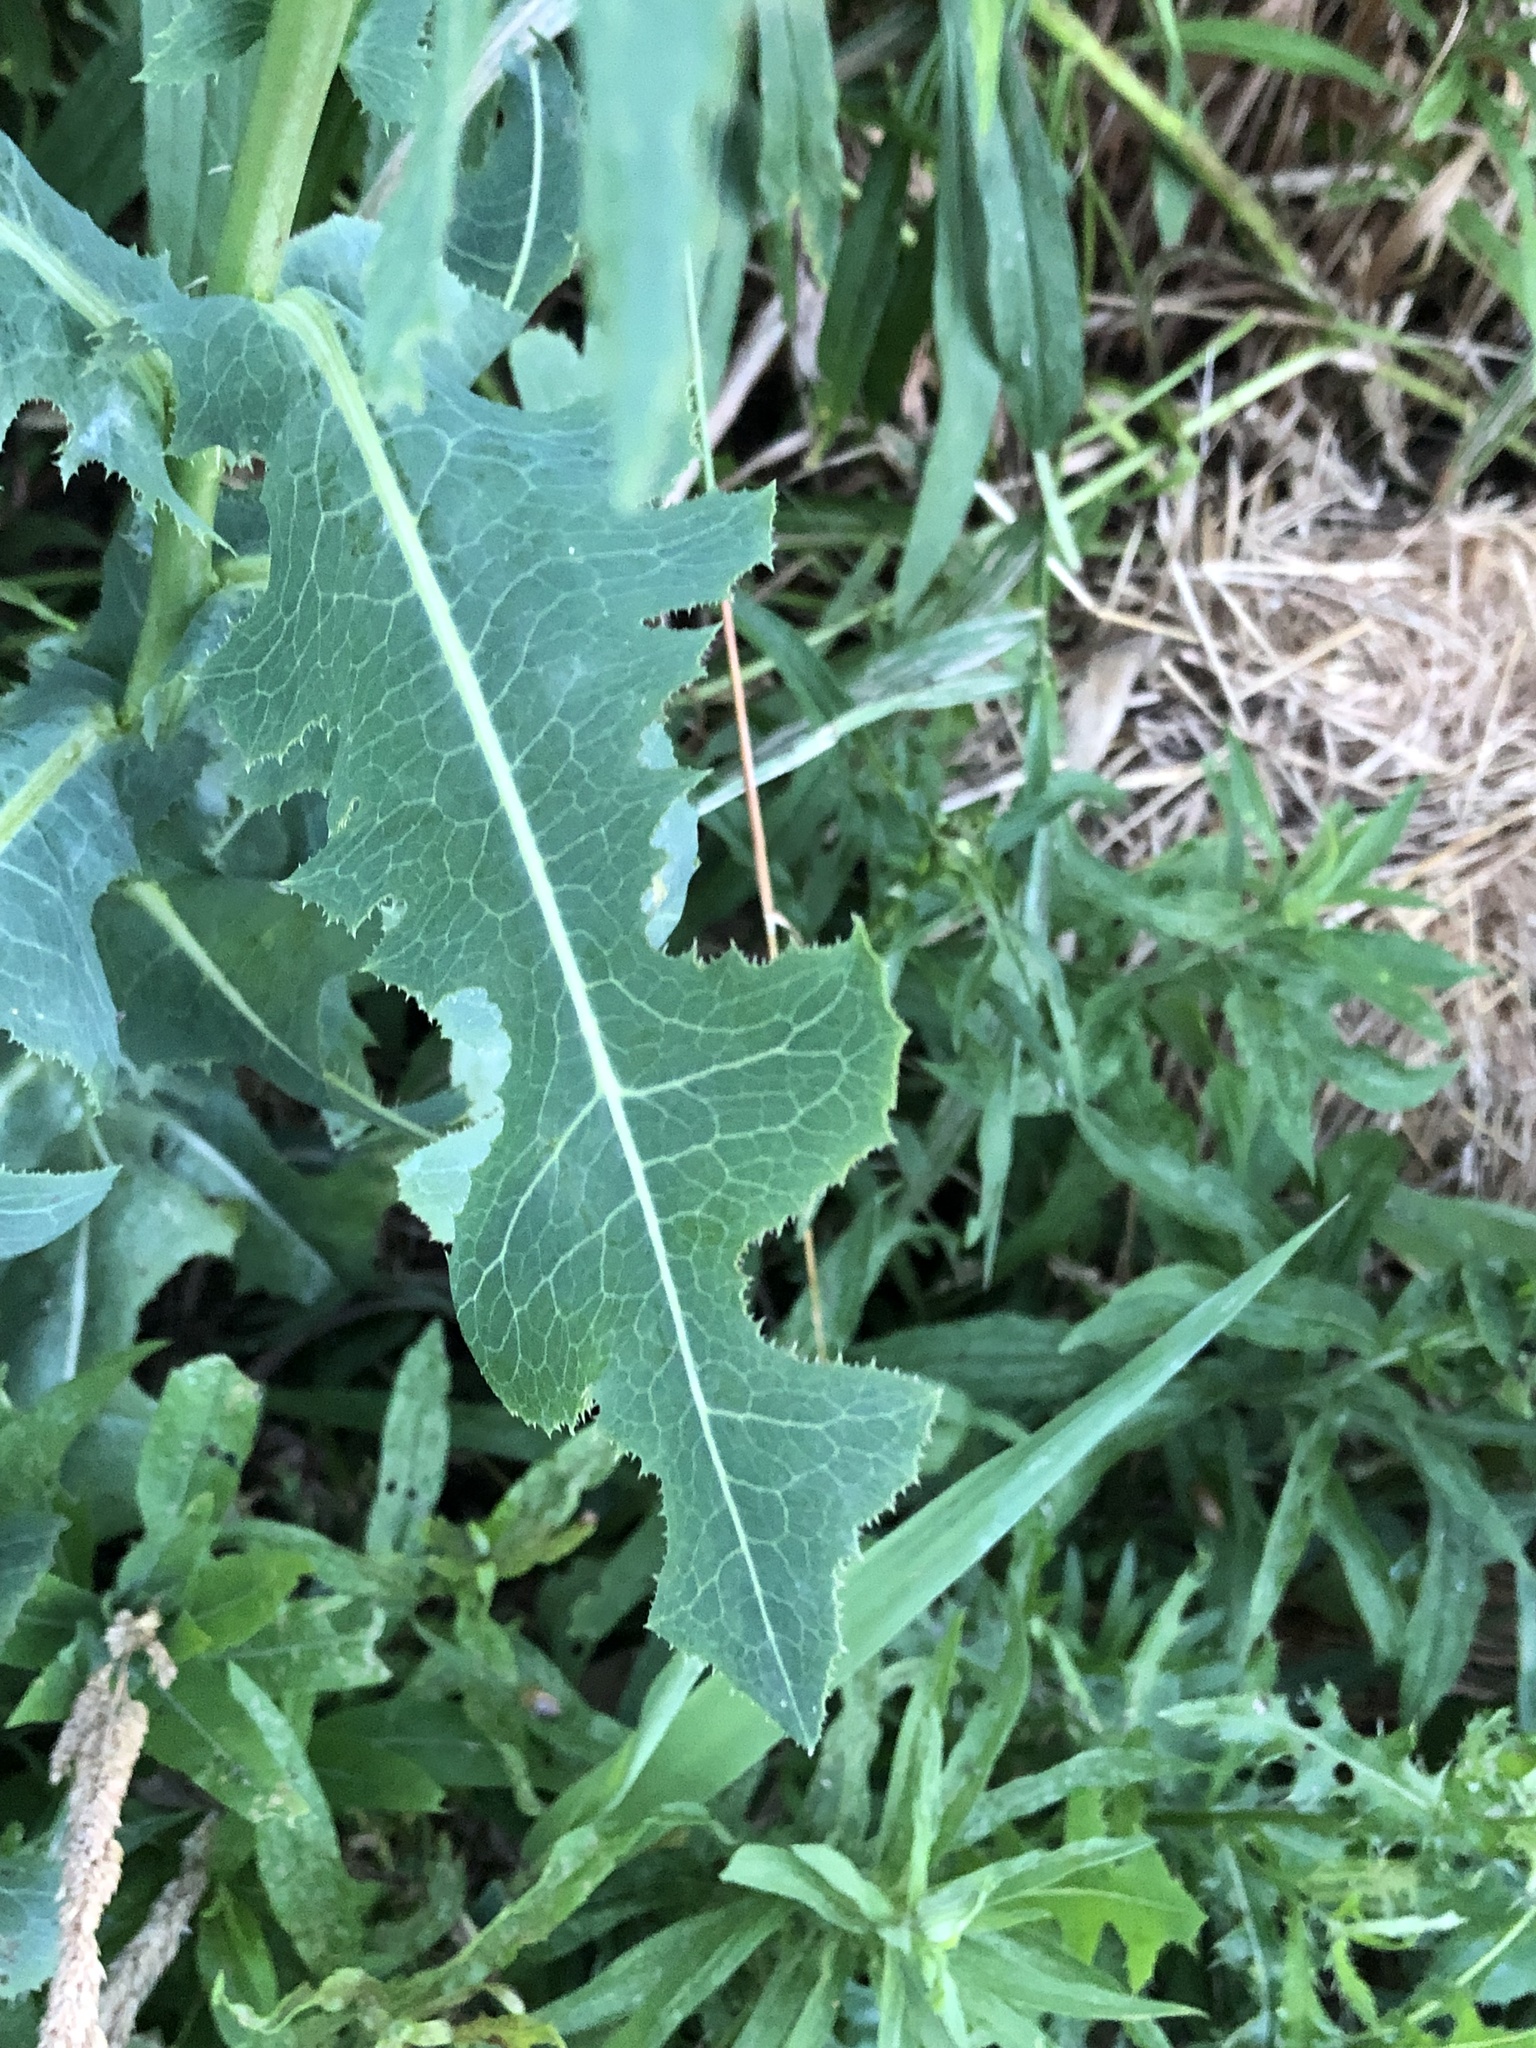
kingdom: Plantae
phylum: Tracheophyta
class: Magnoliopsida
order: Asterales
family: Asteraceae
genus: Lactuca
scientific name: Lactuca serriola
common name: Prickly lettuce
